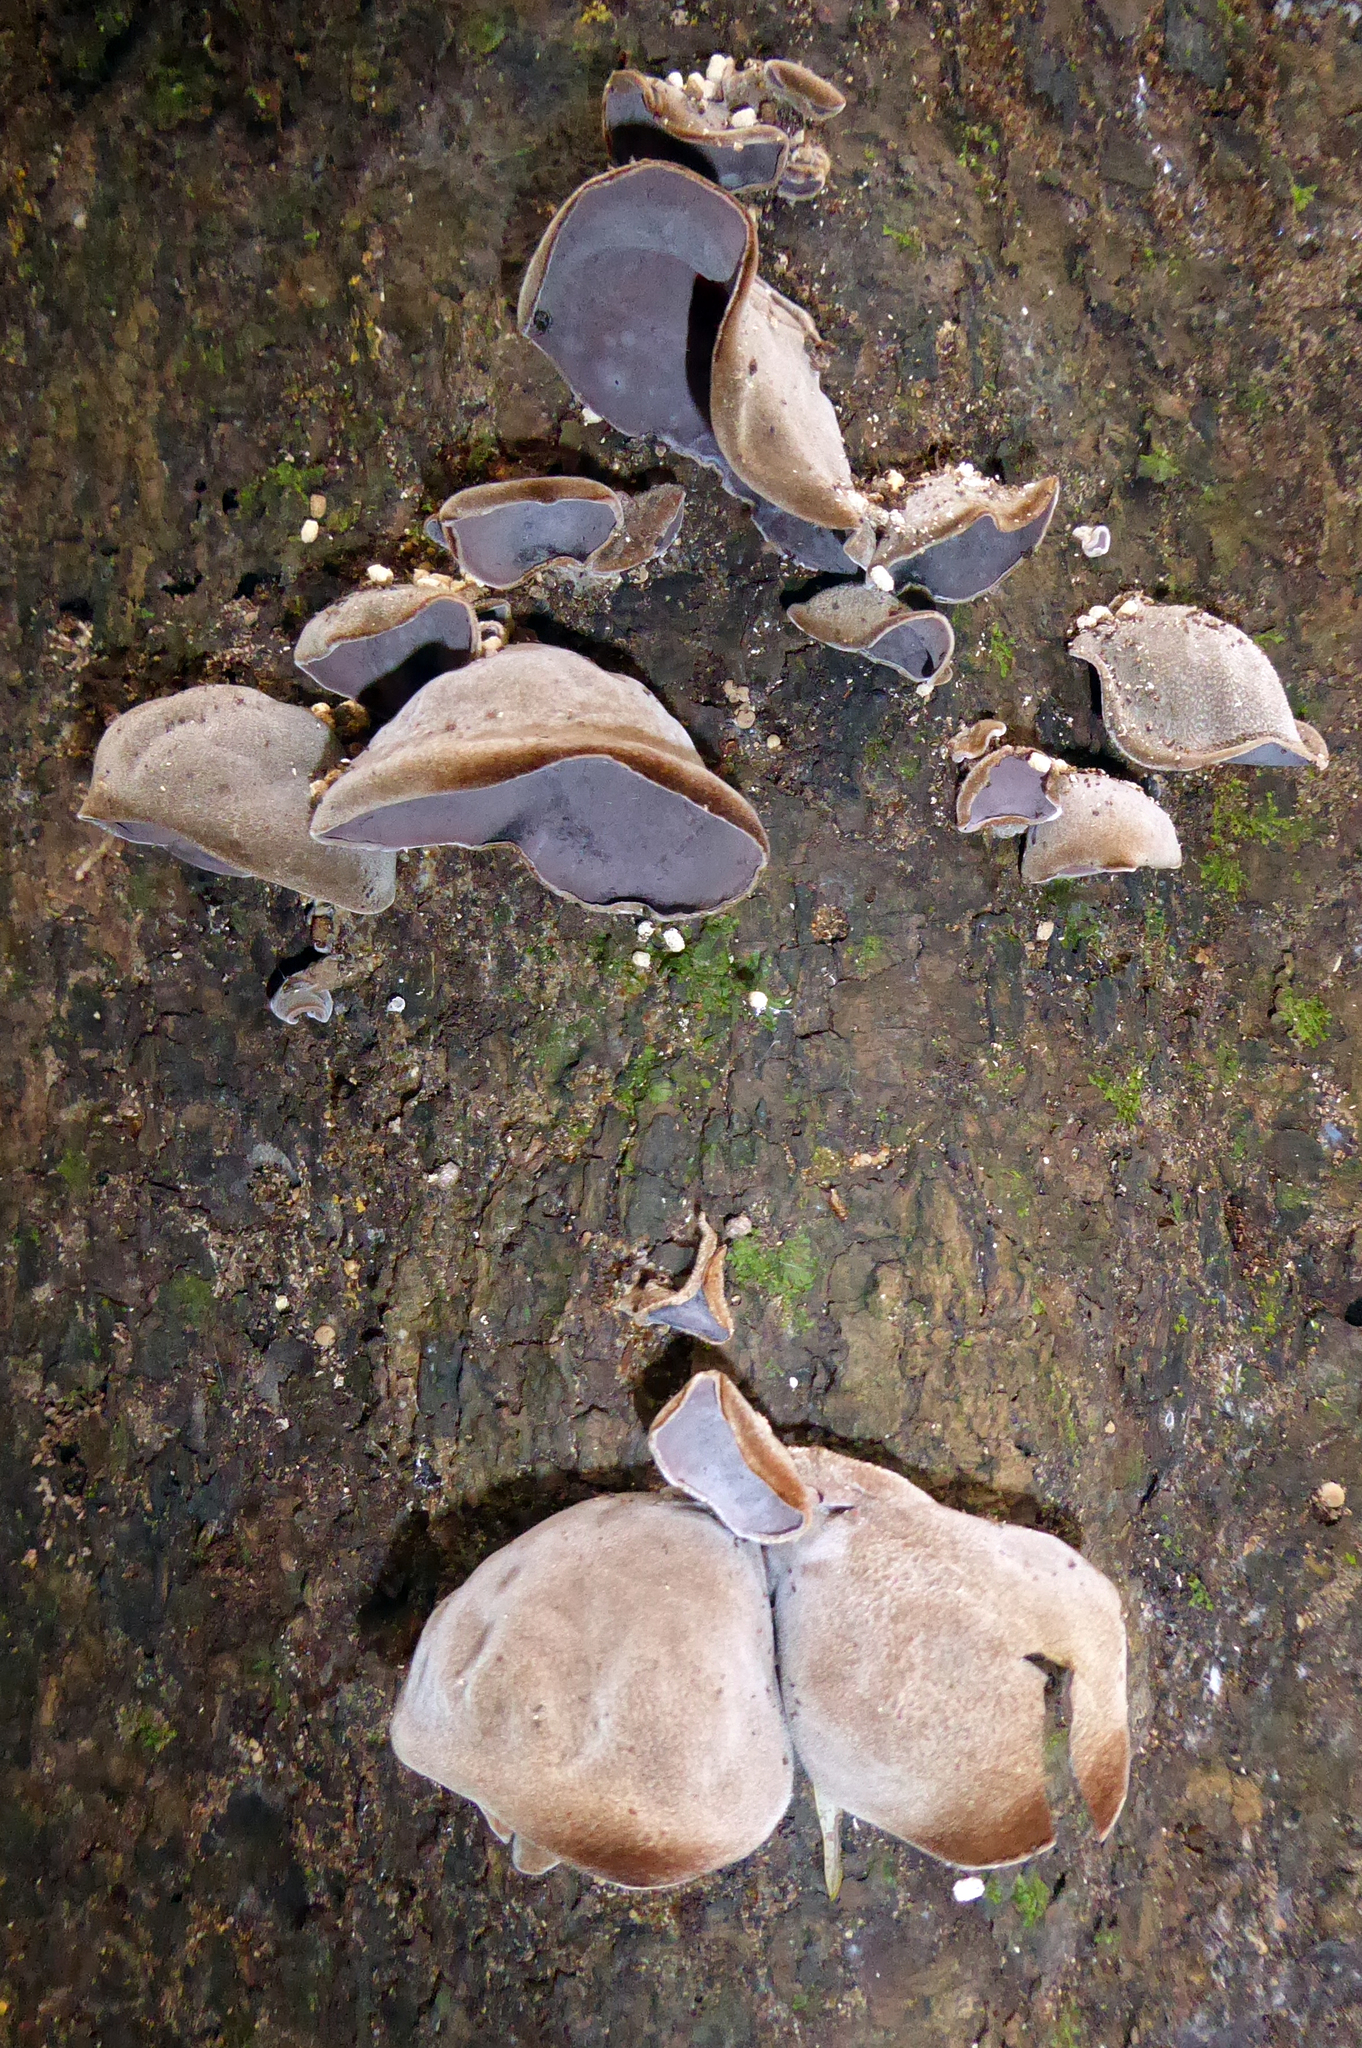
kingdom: Fungi
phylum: Basidiomycota
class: Agaricomycetes
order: Auriculariales
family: Auriculariaceae
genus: Auricularia
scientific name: Auricularia cornea
